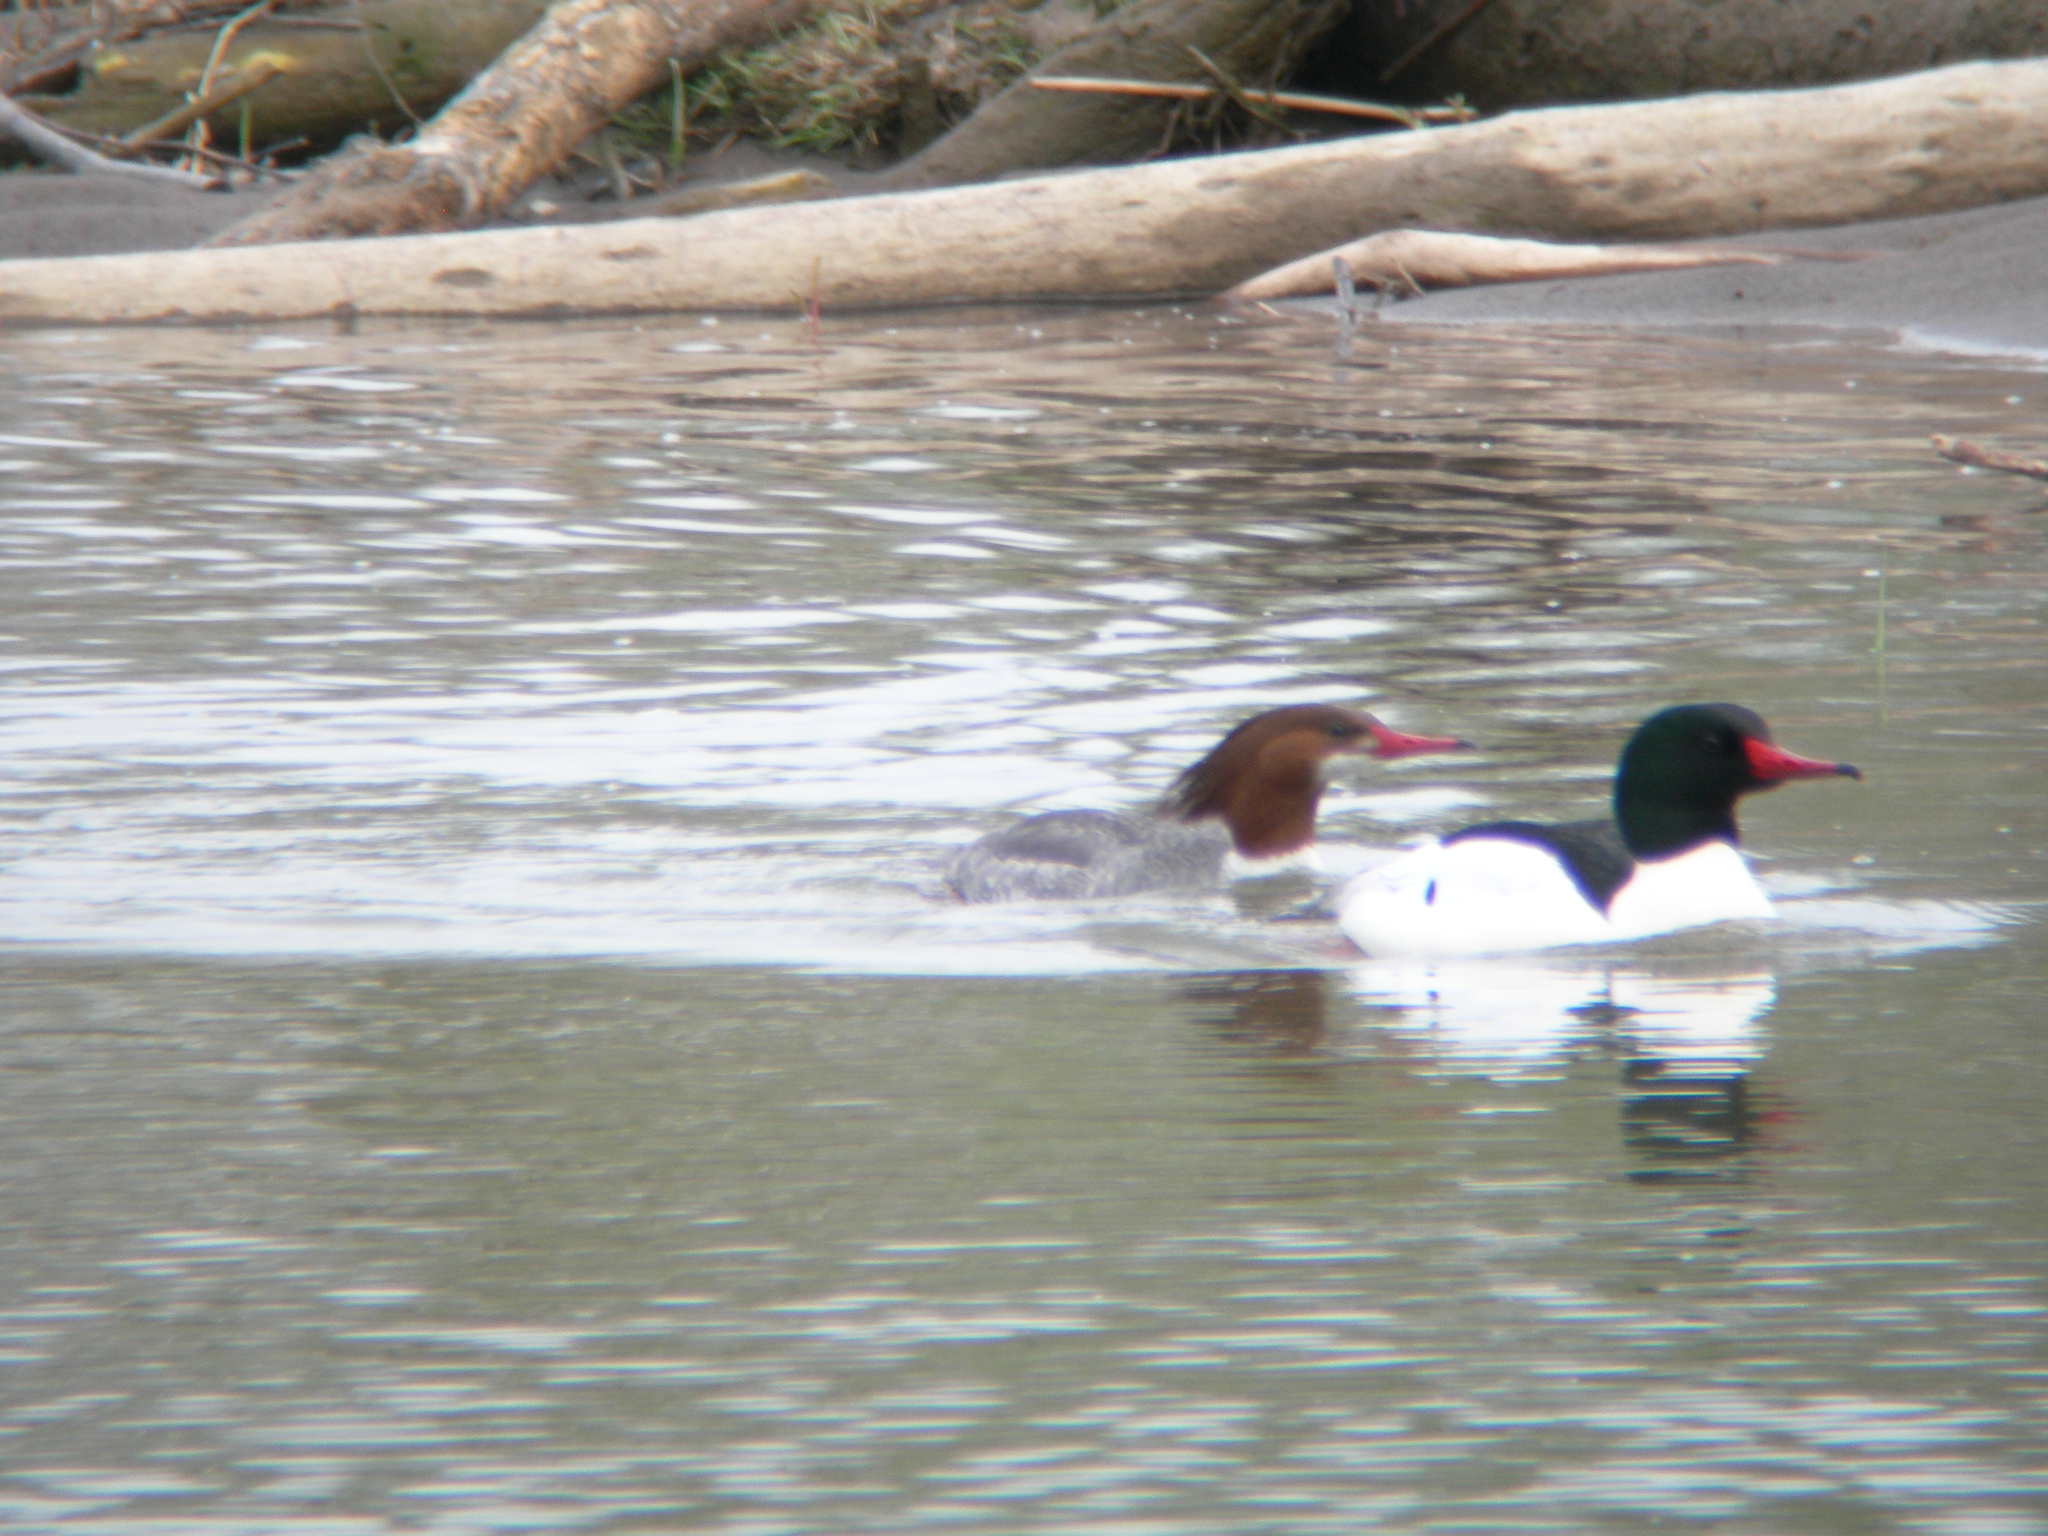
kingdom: Animalia
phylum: Chordata
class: Aves
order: Anseriformes
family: Anatidae
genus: Mergus
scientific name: Mergus merganser
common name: Common merganser
